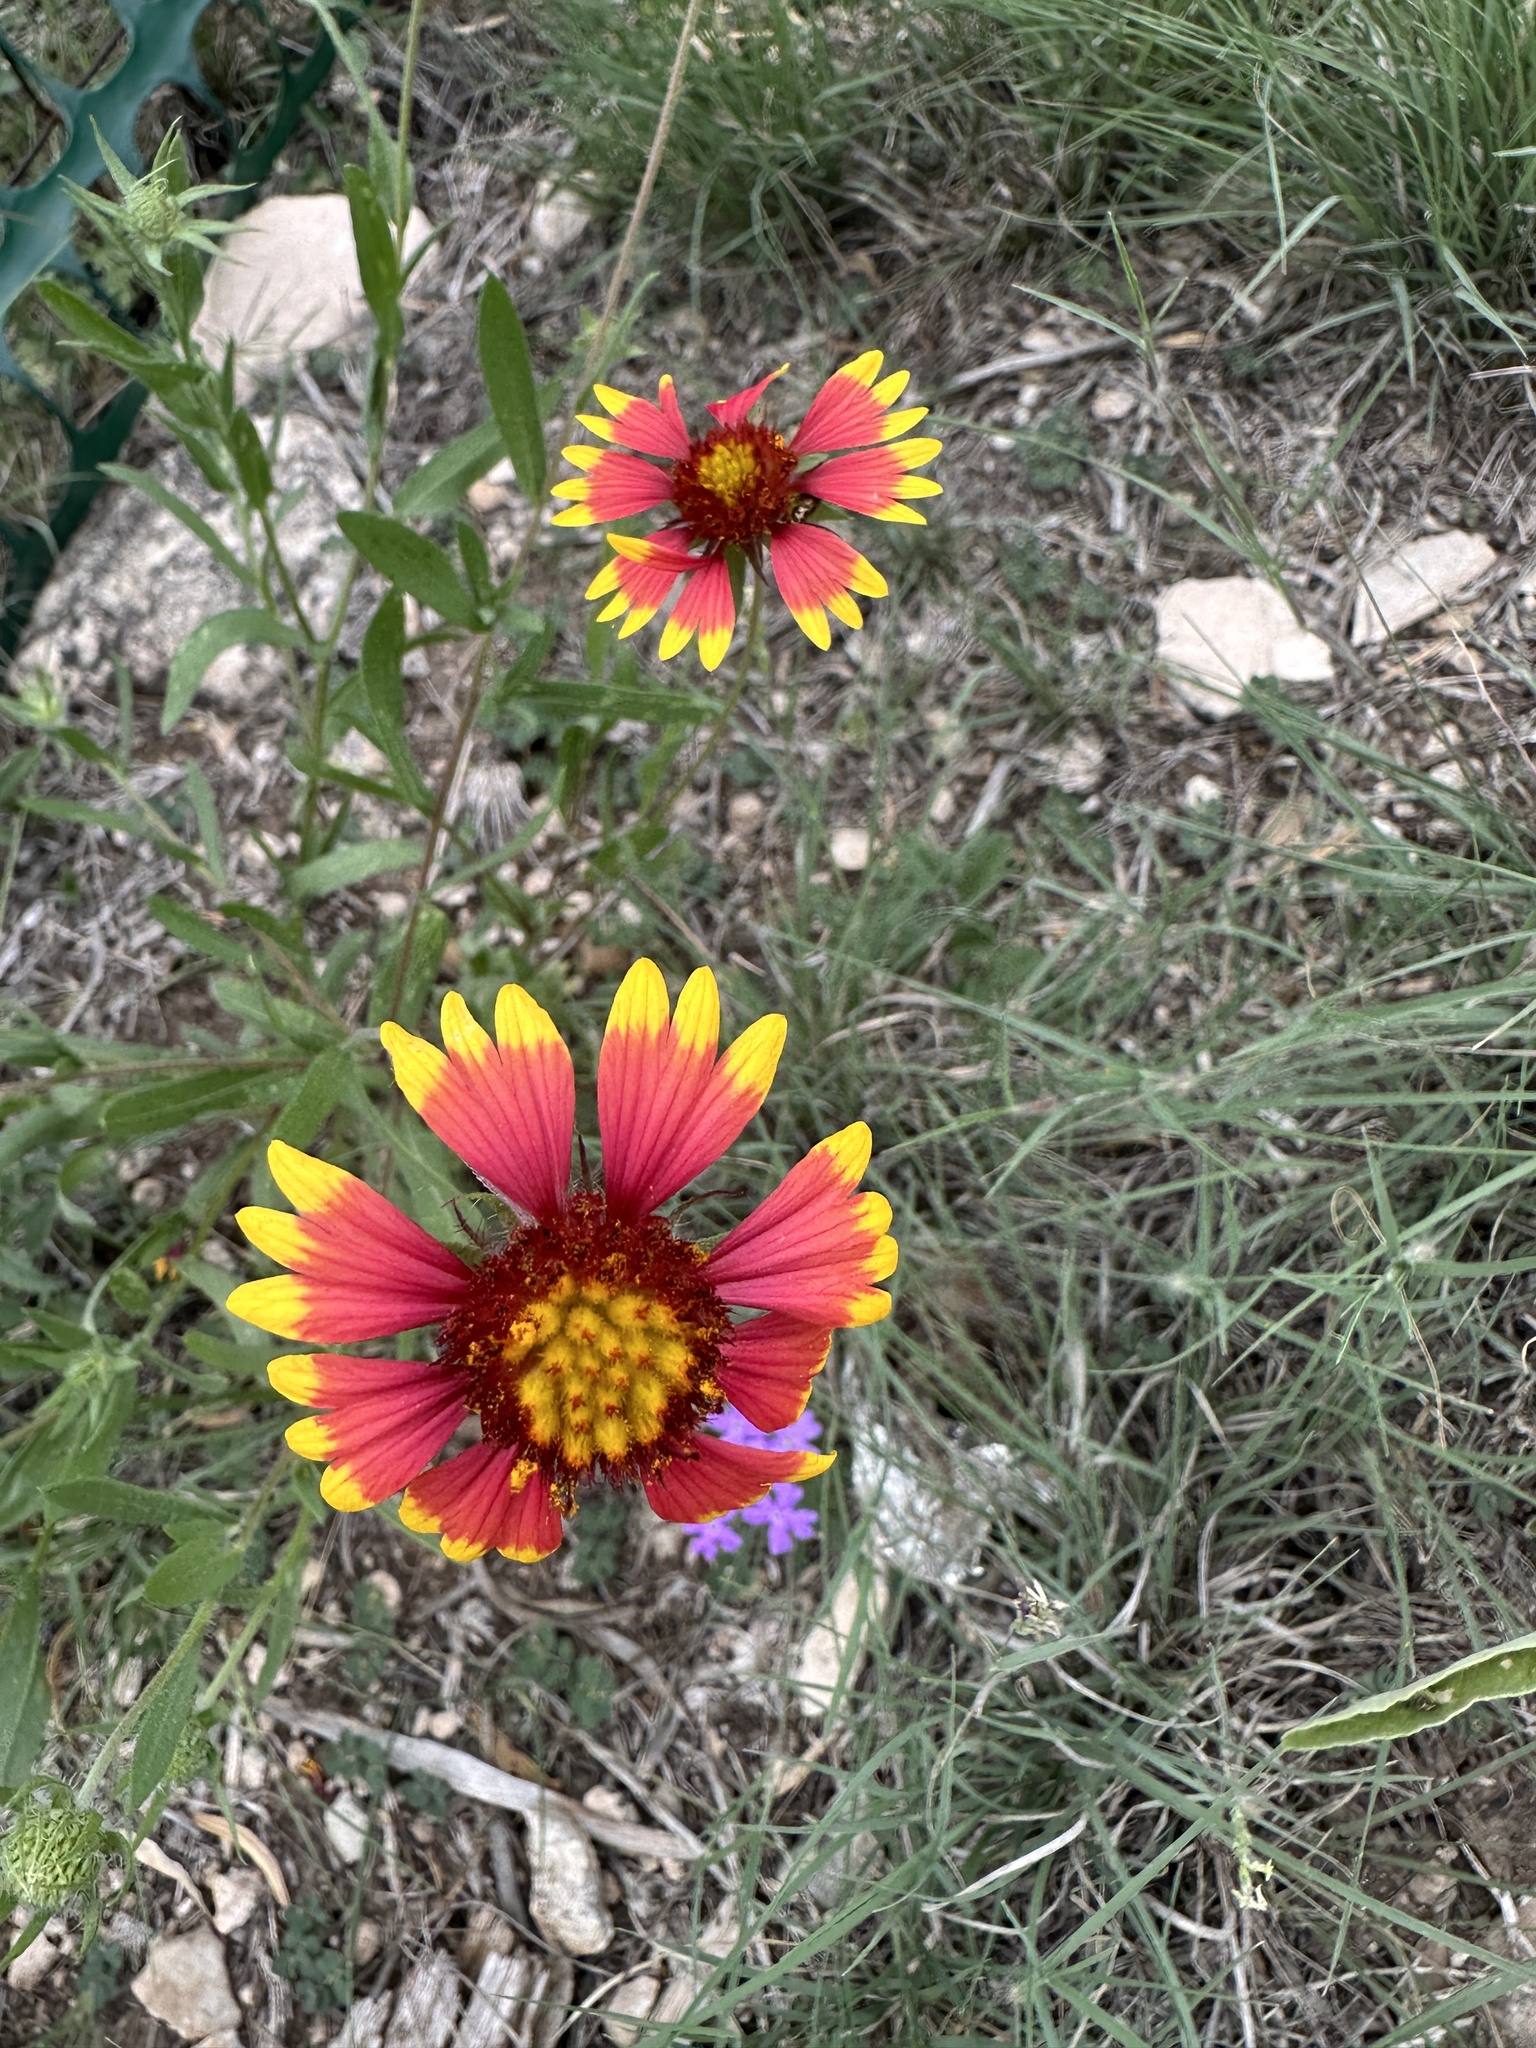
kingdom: Plantae
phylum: Tracheophyta
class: Magnoliopsida
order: Asterales
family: Asteraceae
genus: Gaillardia
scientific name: Gaillardia pulchella
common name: Firewheel
